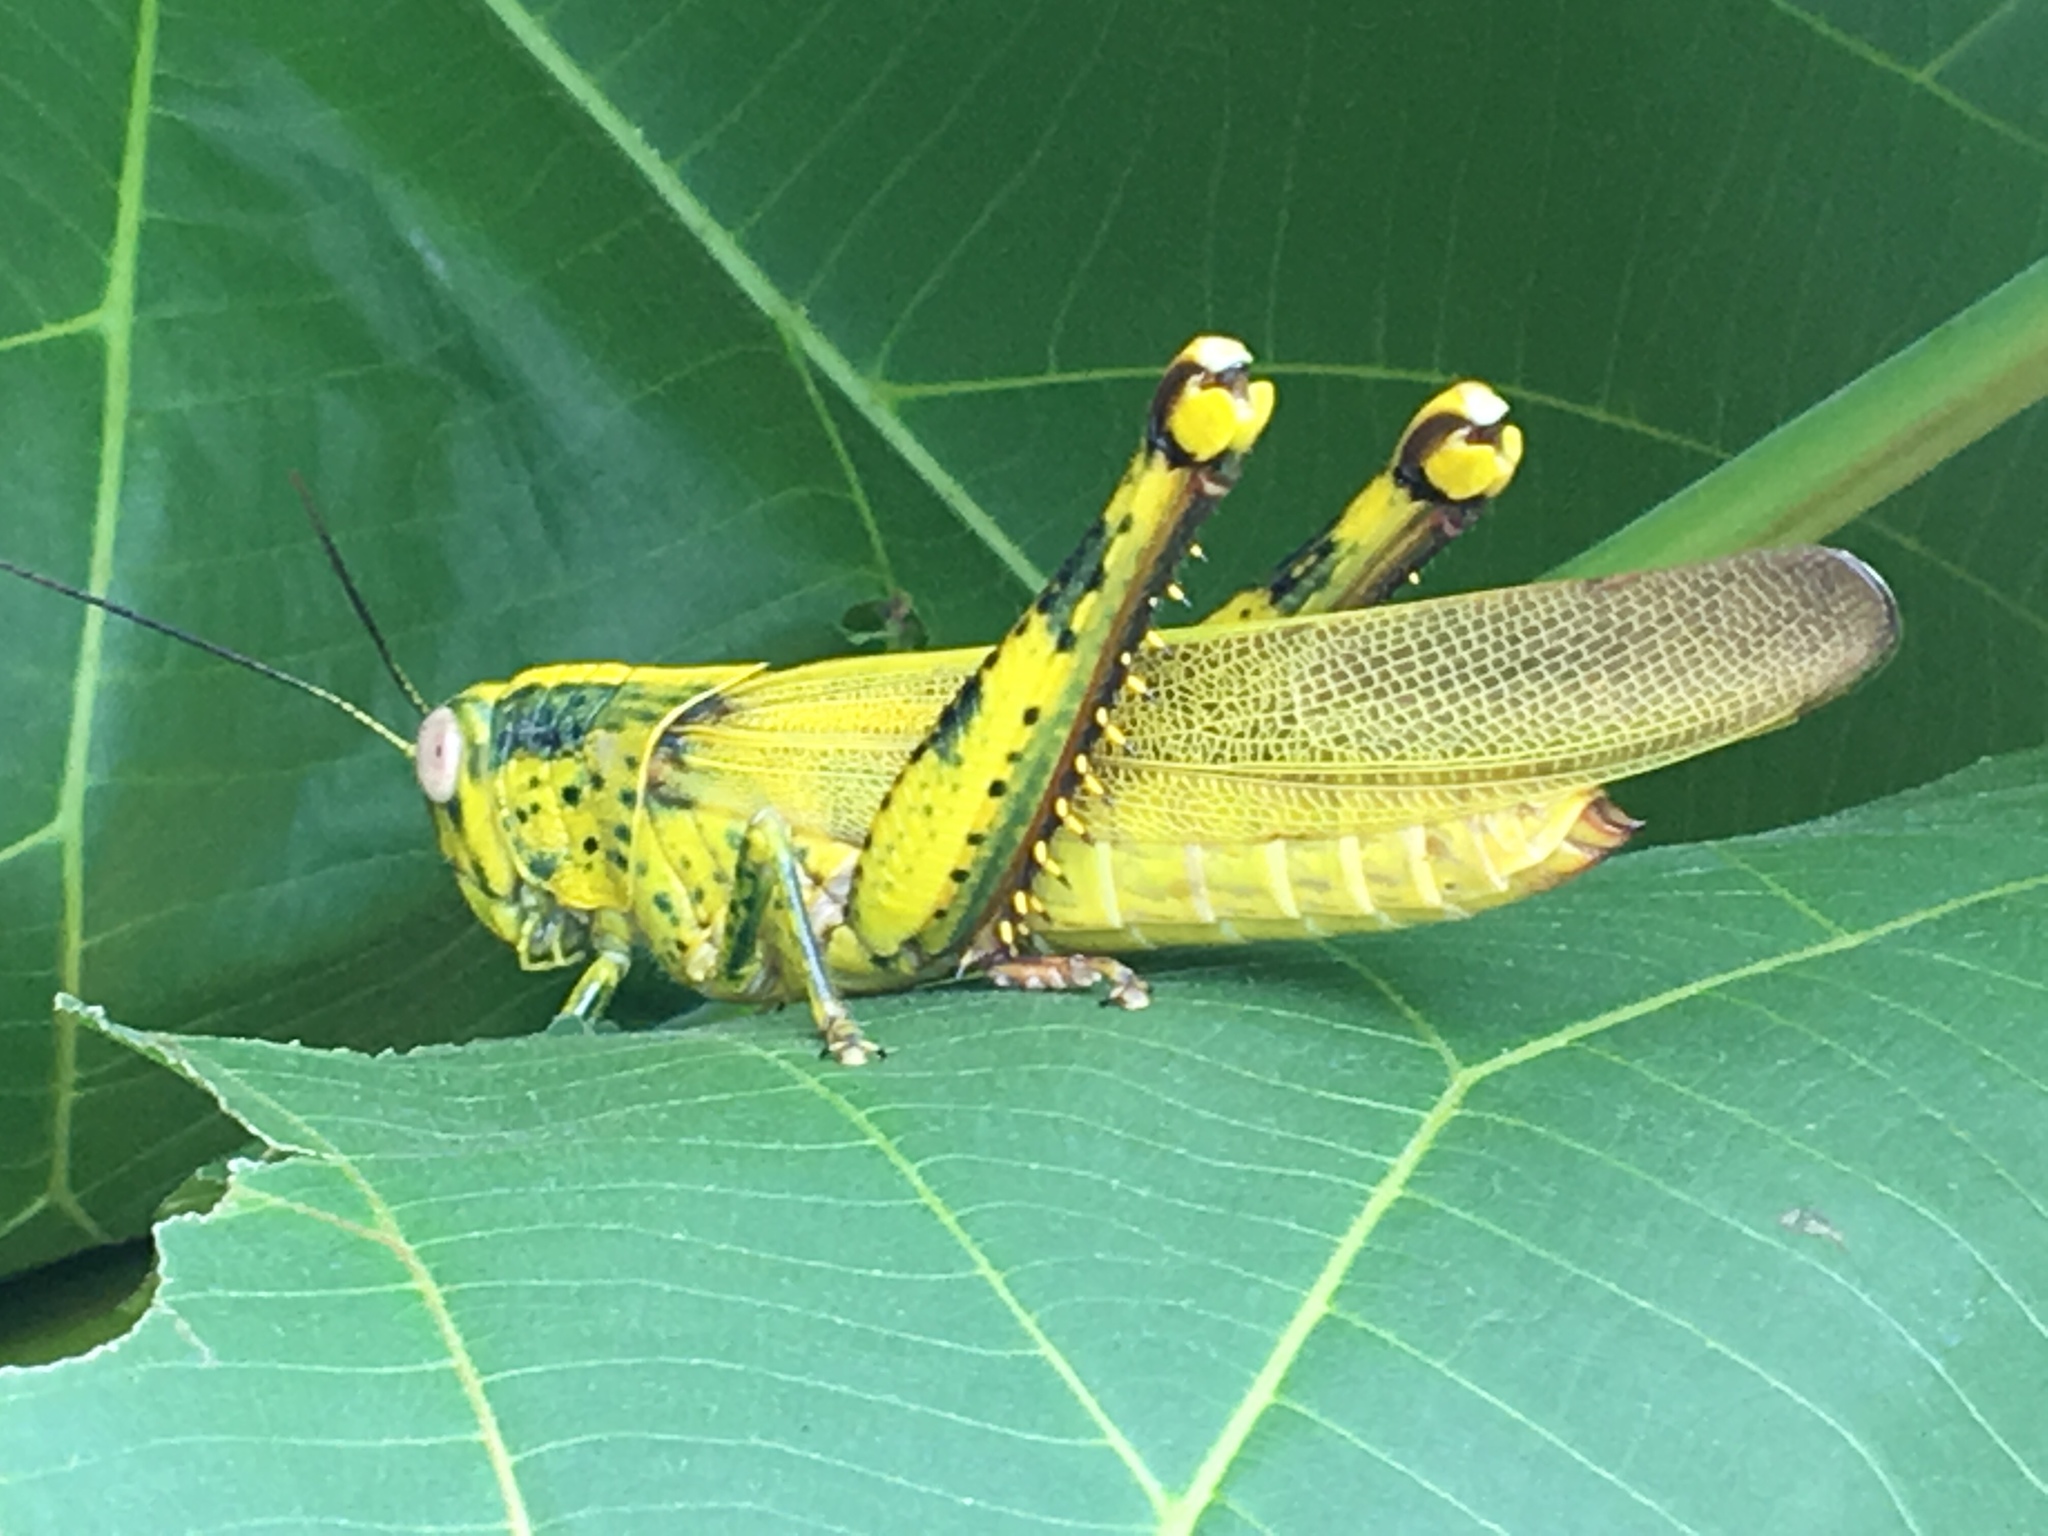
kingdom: Animalia
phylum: Arthropoda
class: Insecta
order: Orthoptera
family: Acrididae
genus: Valanga
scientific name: Valanga nigricornis
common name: Javanese bird grasshopper
